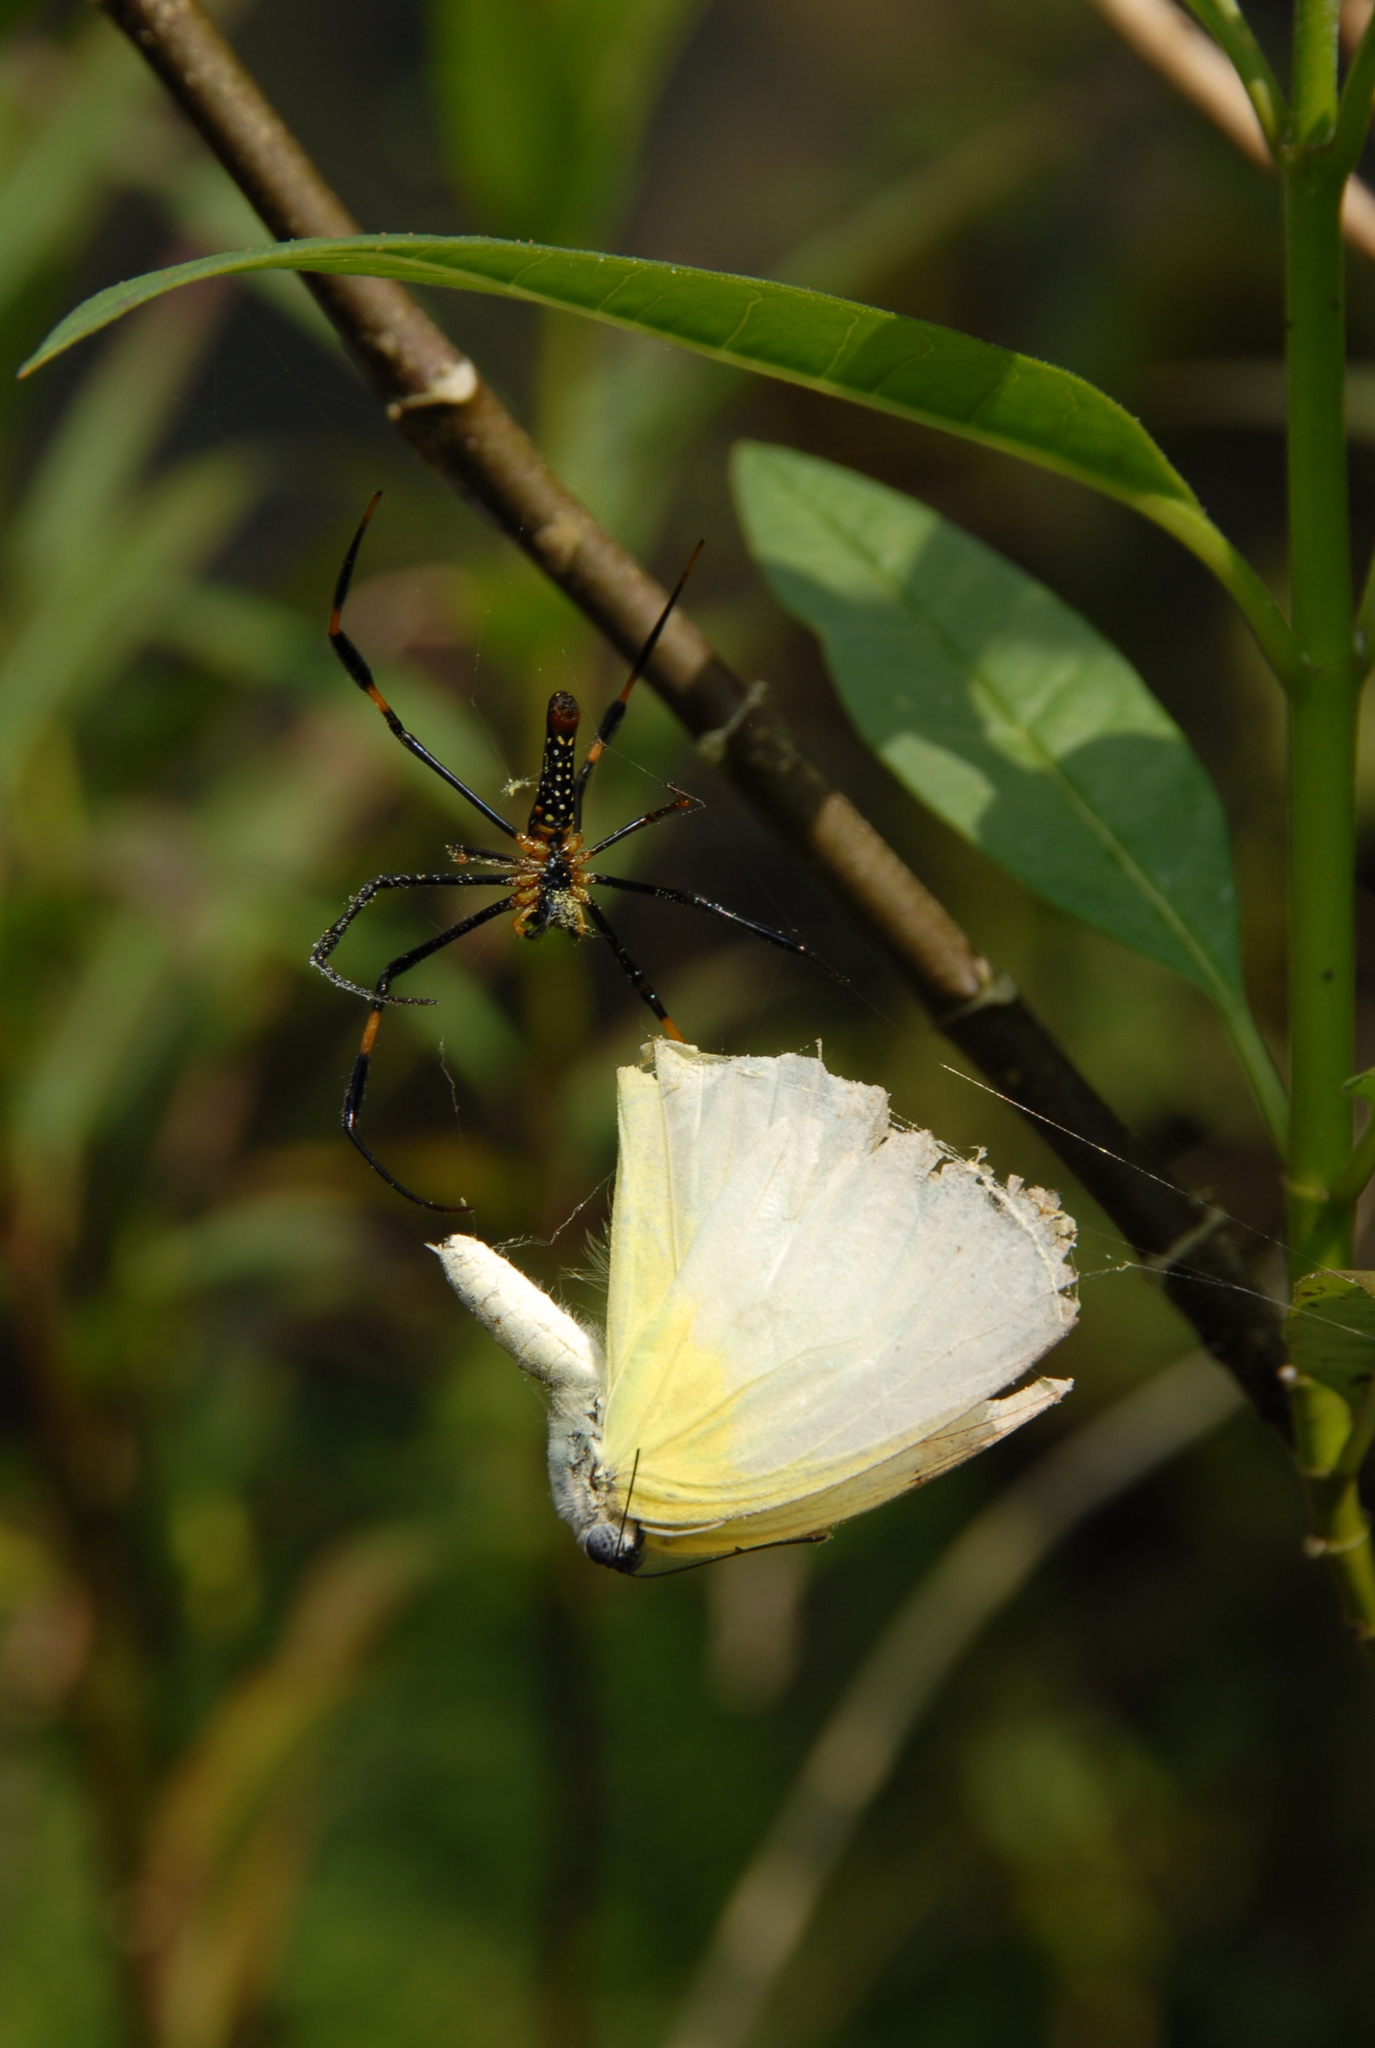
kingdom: Animalia
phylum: Arthropoda
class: Arachnida
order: Araneae
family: Araneidae
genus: Nephila
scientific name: Nephila pilipes
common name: Giant golden orb weaver
